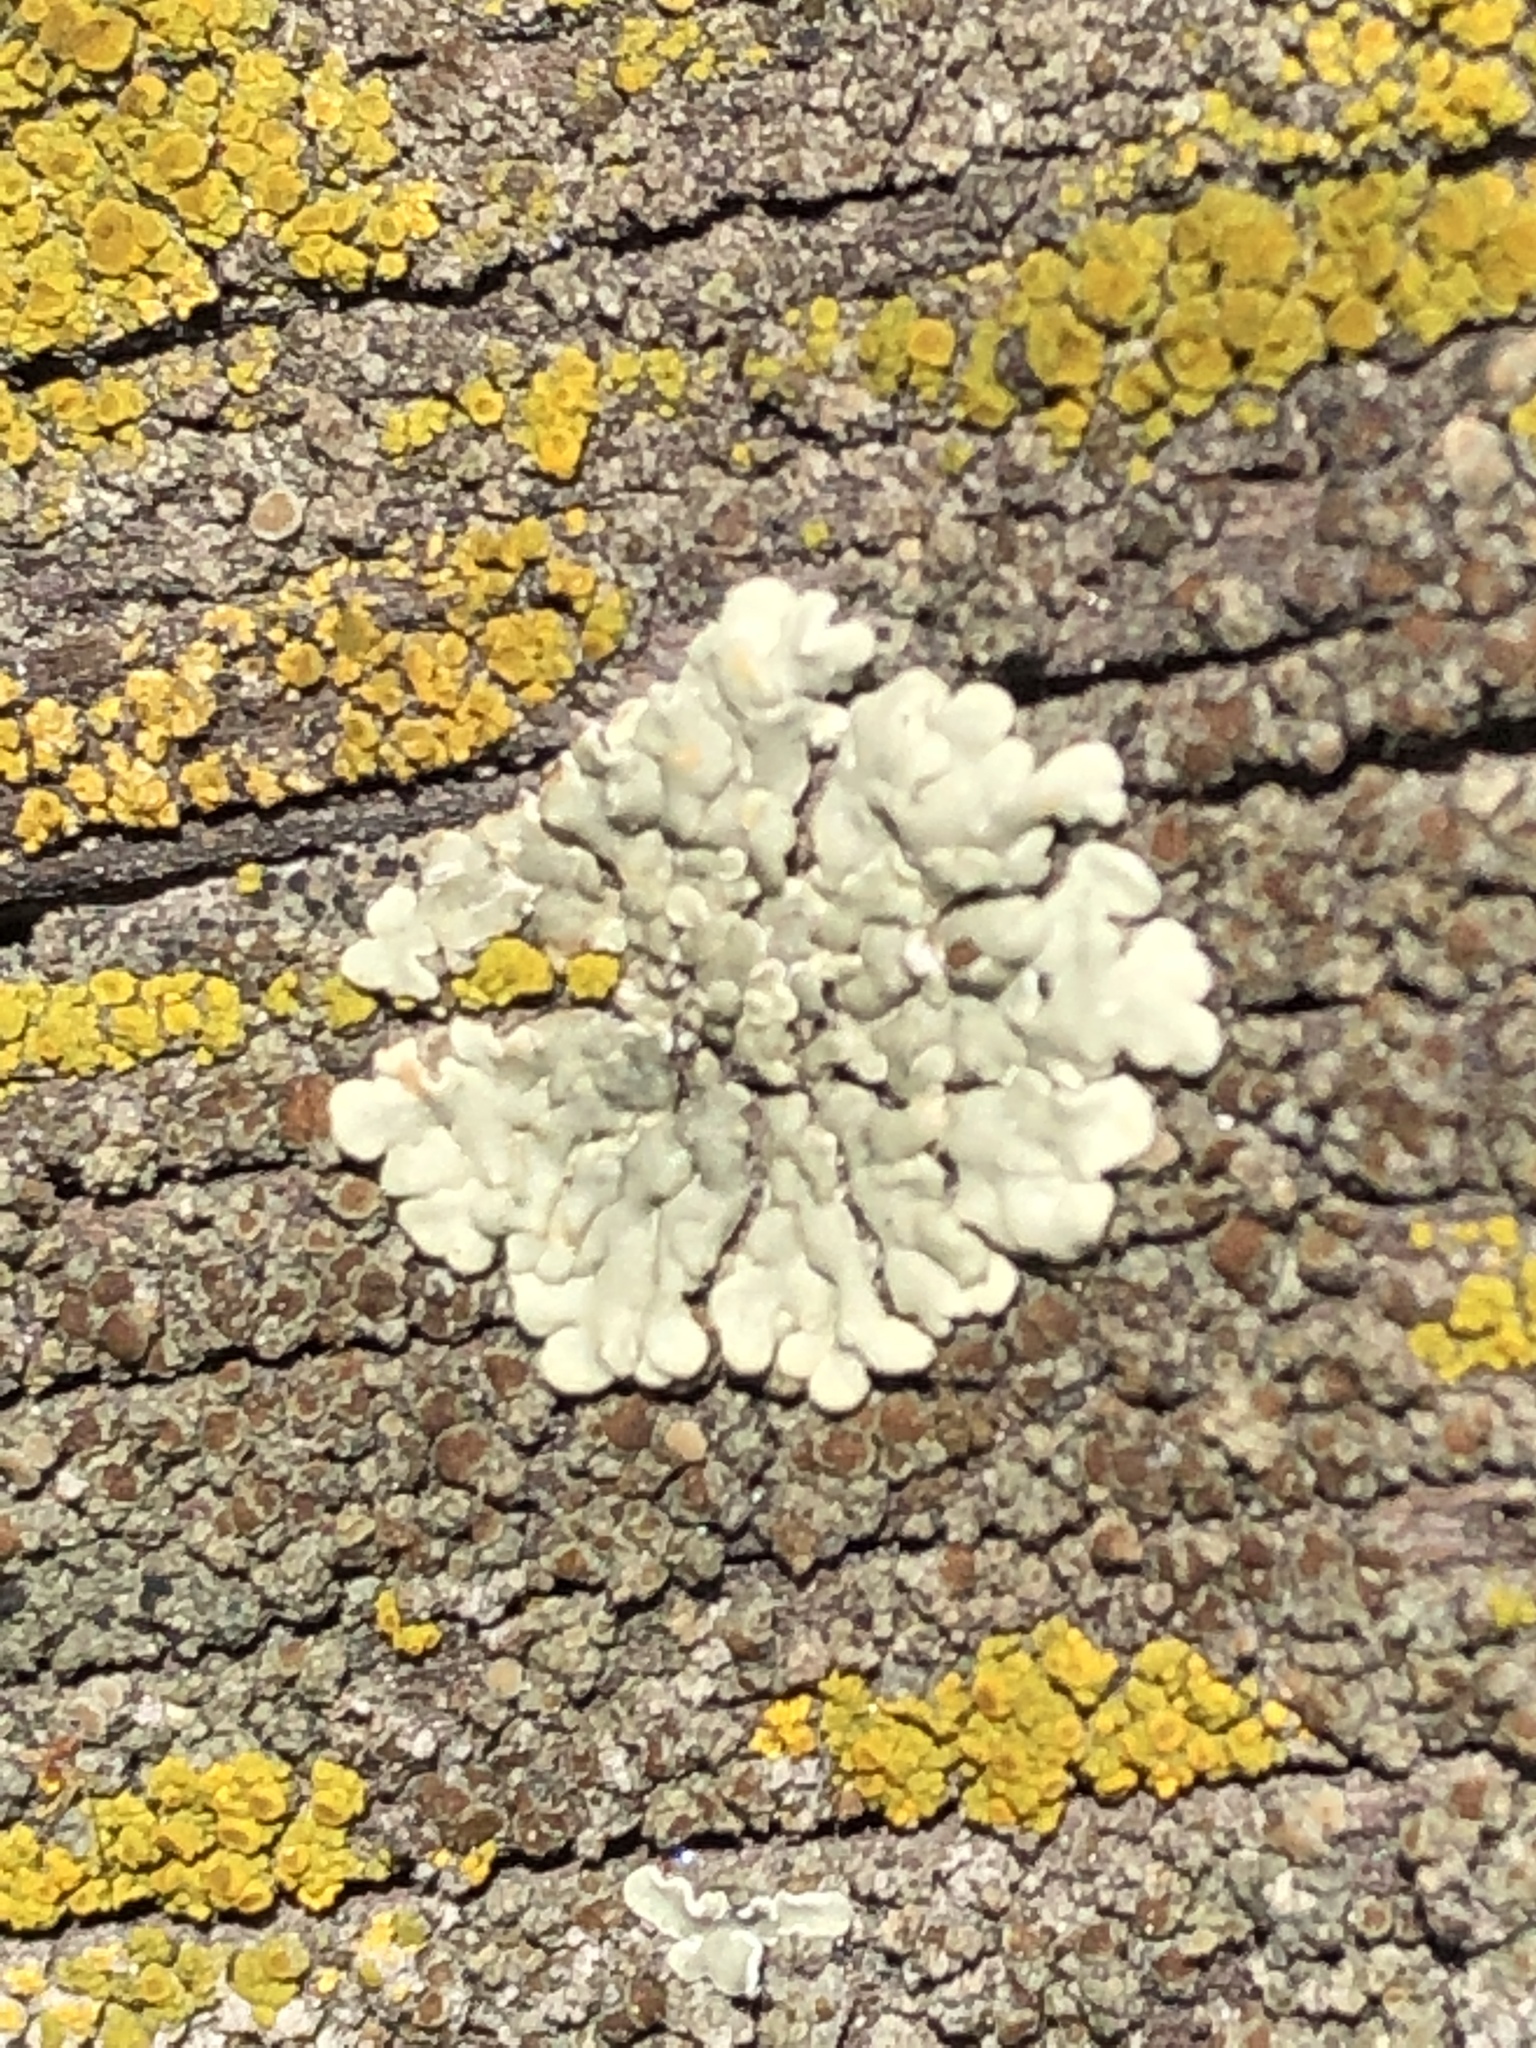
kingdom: Fungi
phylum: Ascomycota
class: Lecanoromycetes
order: Lecanorales
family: Lecanoraceae
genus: Protoparmeliopsis
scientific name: Protoparmeliopsis muralis
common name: Stonewall rim lichen
